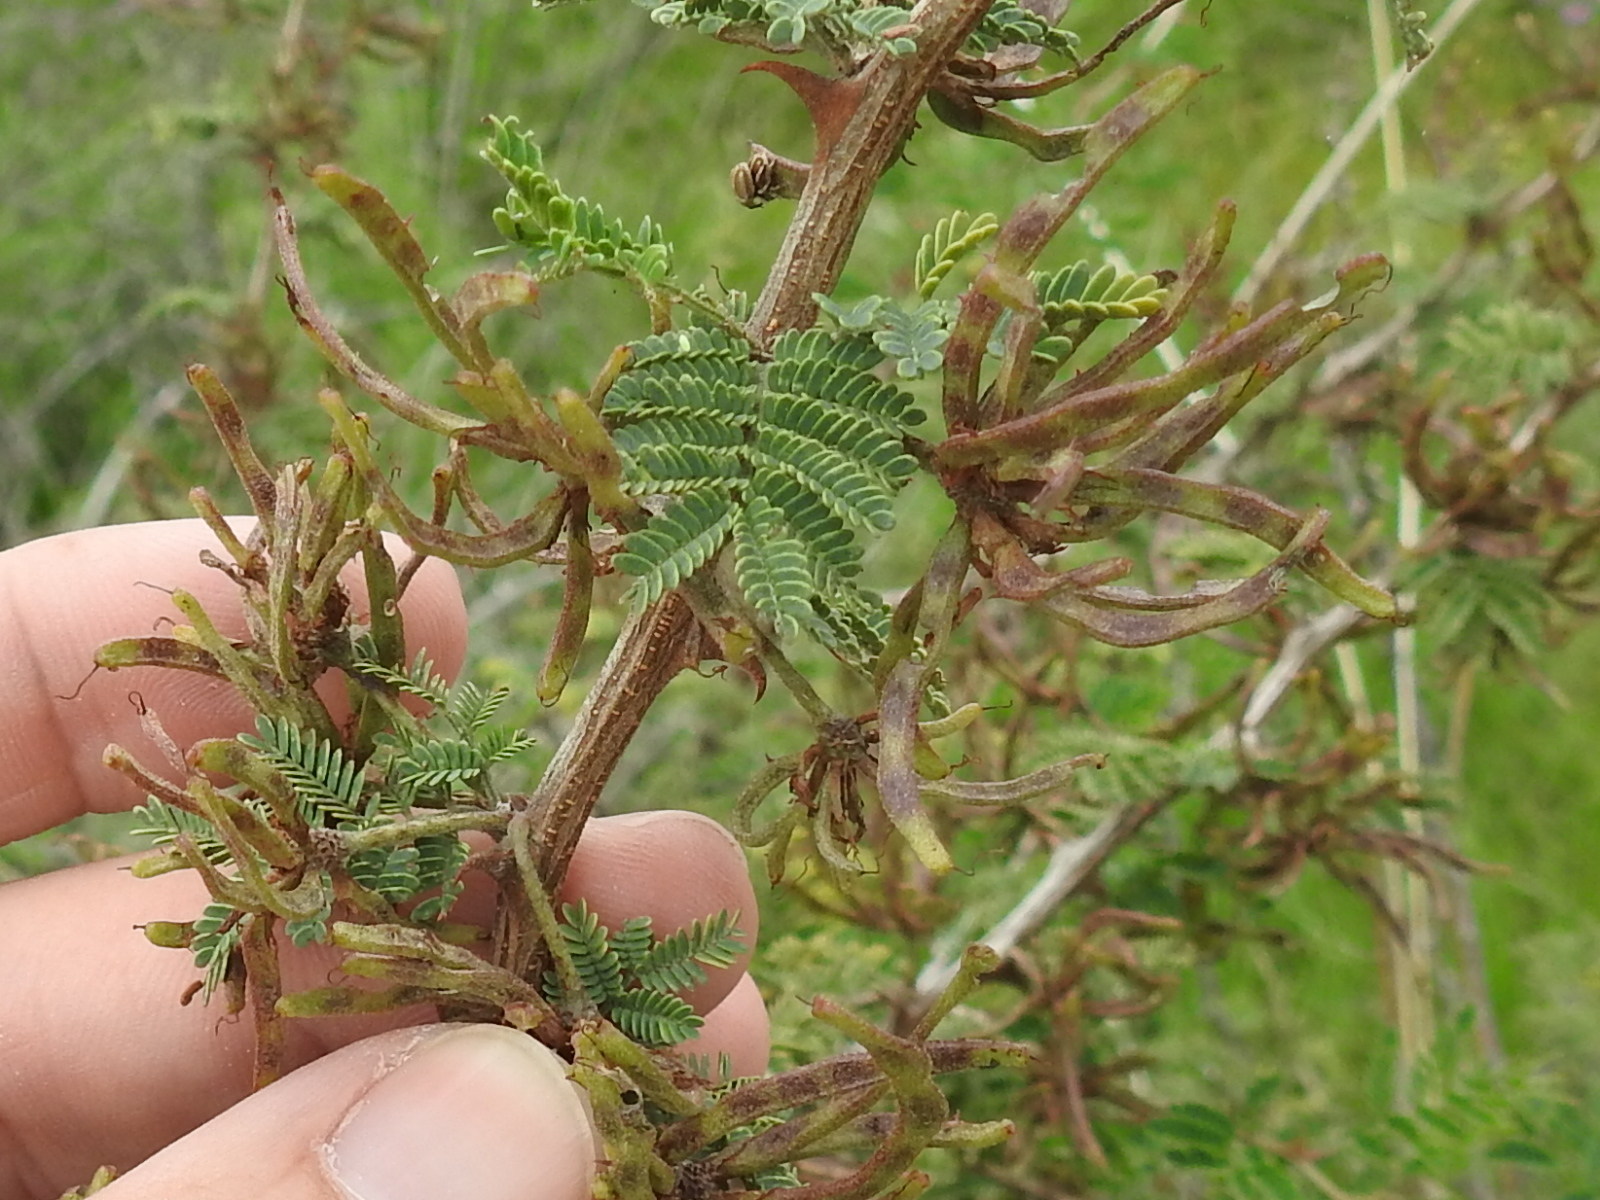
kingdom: Plantae
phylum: Tracheophyta
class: Magnoliopsida
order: Fabales
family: Fabaceae
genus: Mimosa
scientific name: Mimosa biuncifera
